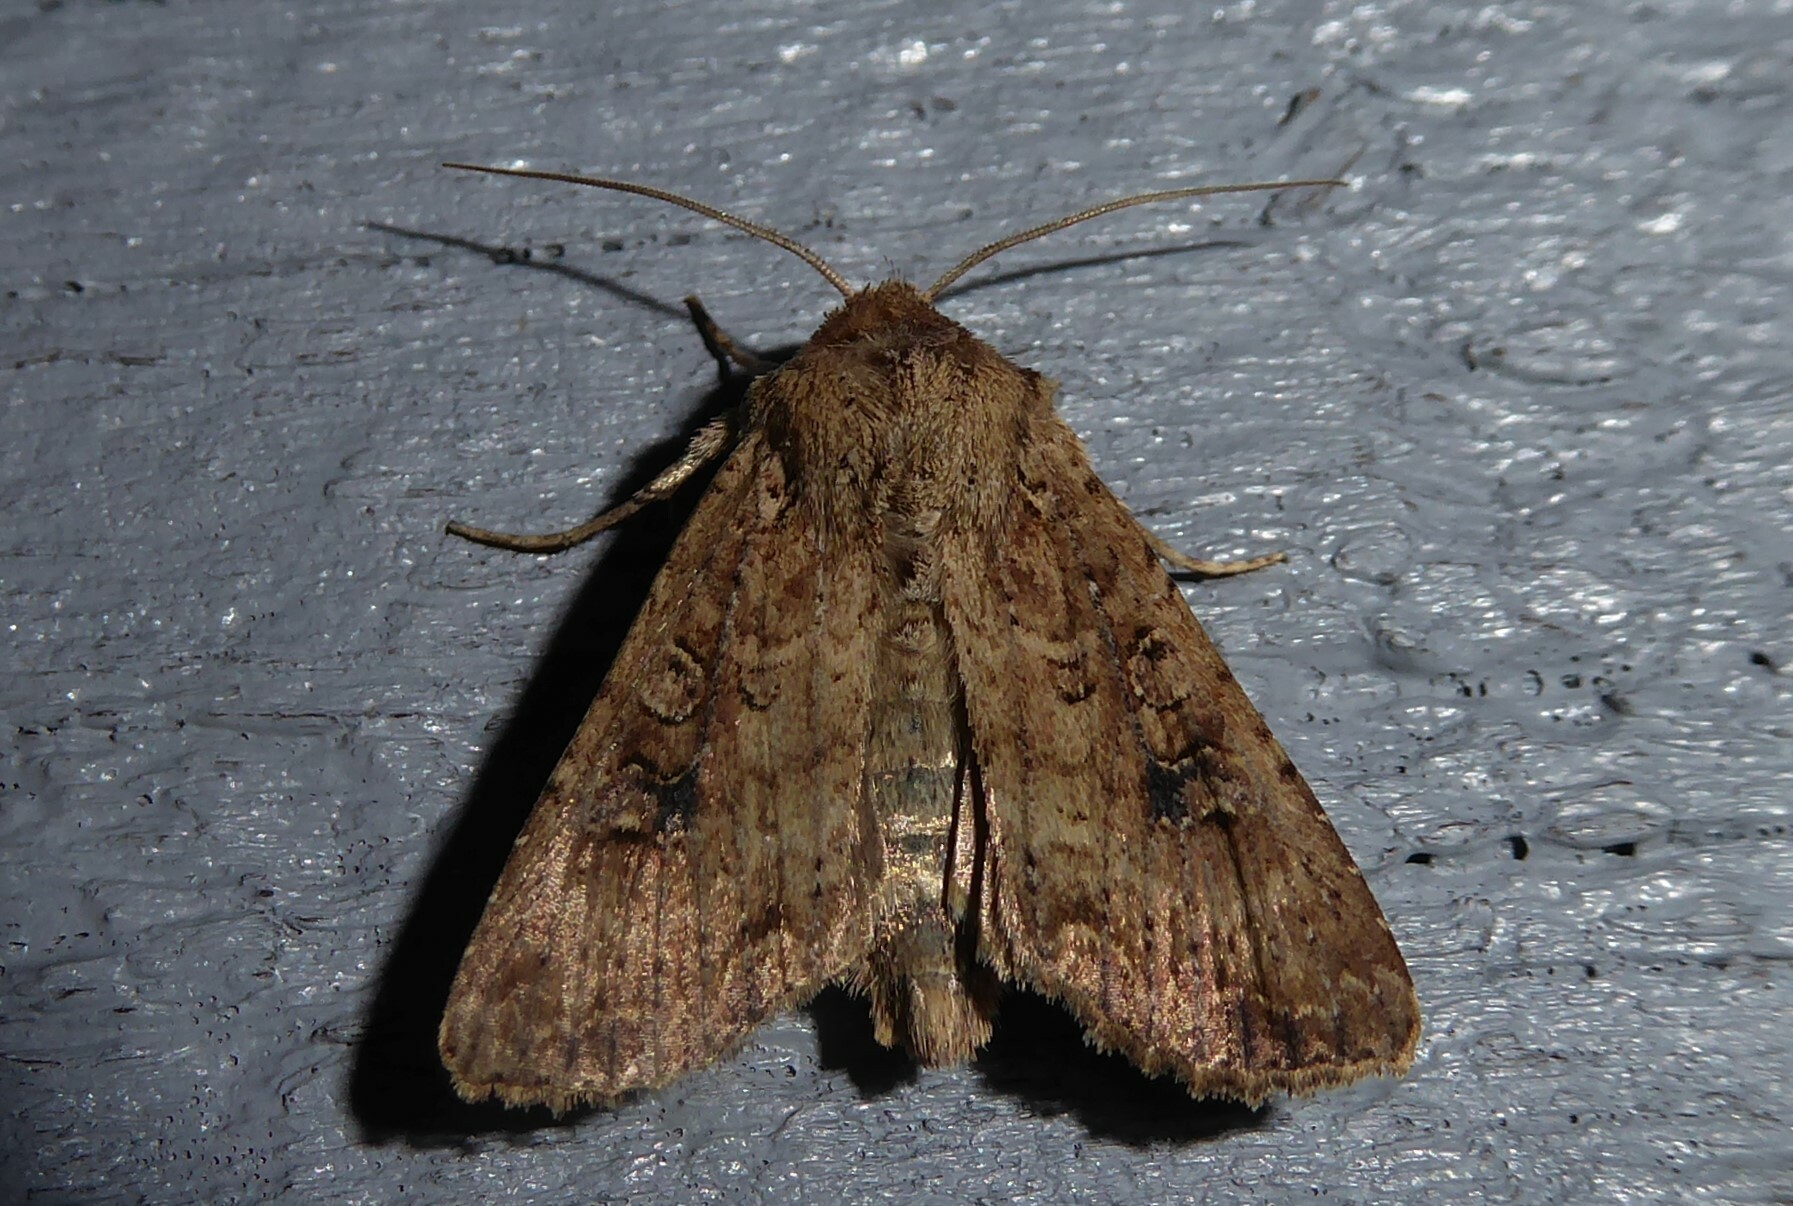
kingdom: Animalia
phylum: Arthropoda
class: Insecta
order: Lepidoptera
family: Noctuidae
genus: Ichneutica
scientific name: Ichneutica morosa
